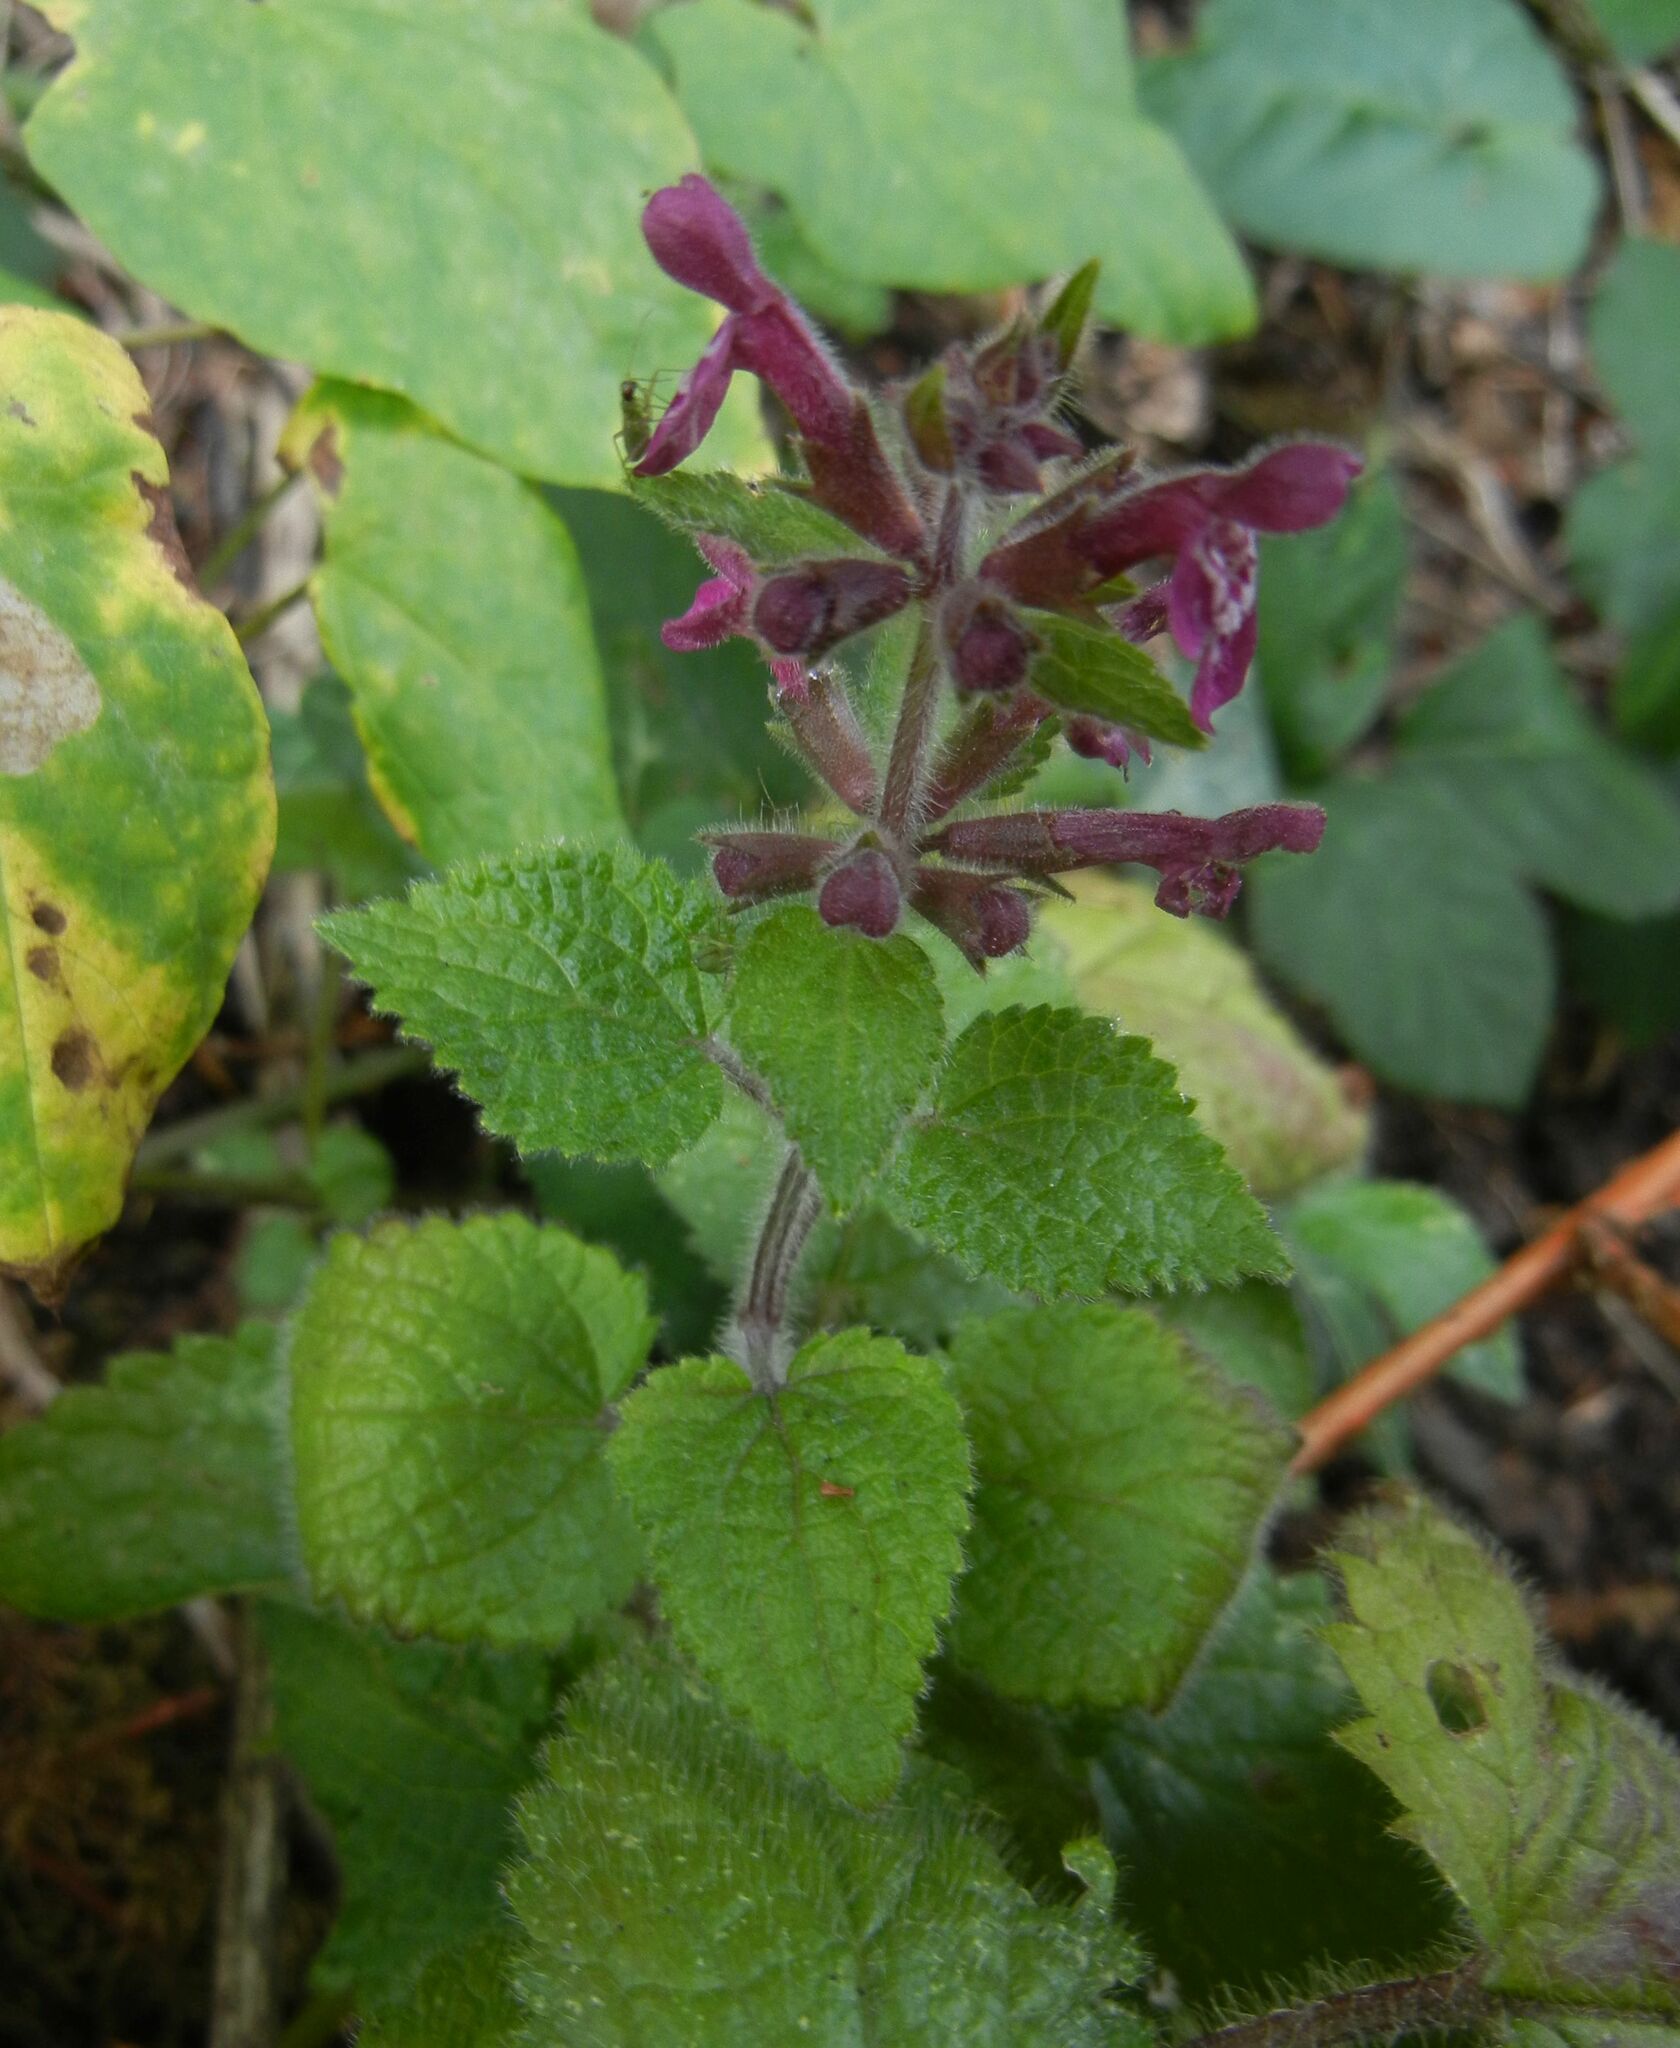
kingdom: Plantae
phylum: Tracheophyta
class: Magnoliopsida
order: Lamiales
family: Lamiaceae
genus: Stachys
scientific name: Stachys sylvatica
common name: Hedge woundwort
